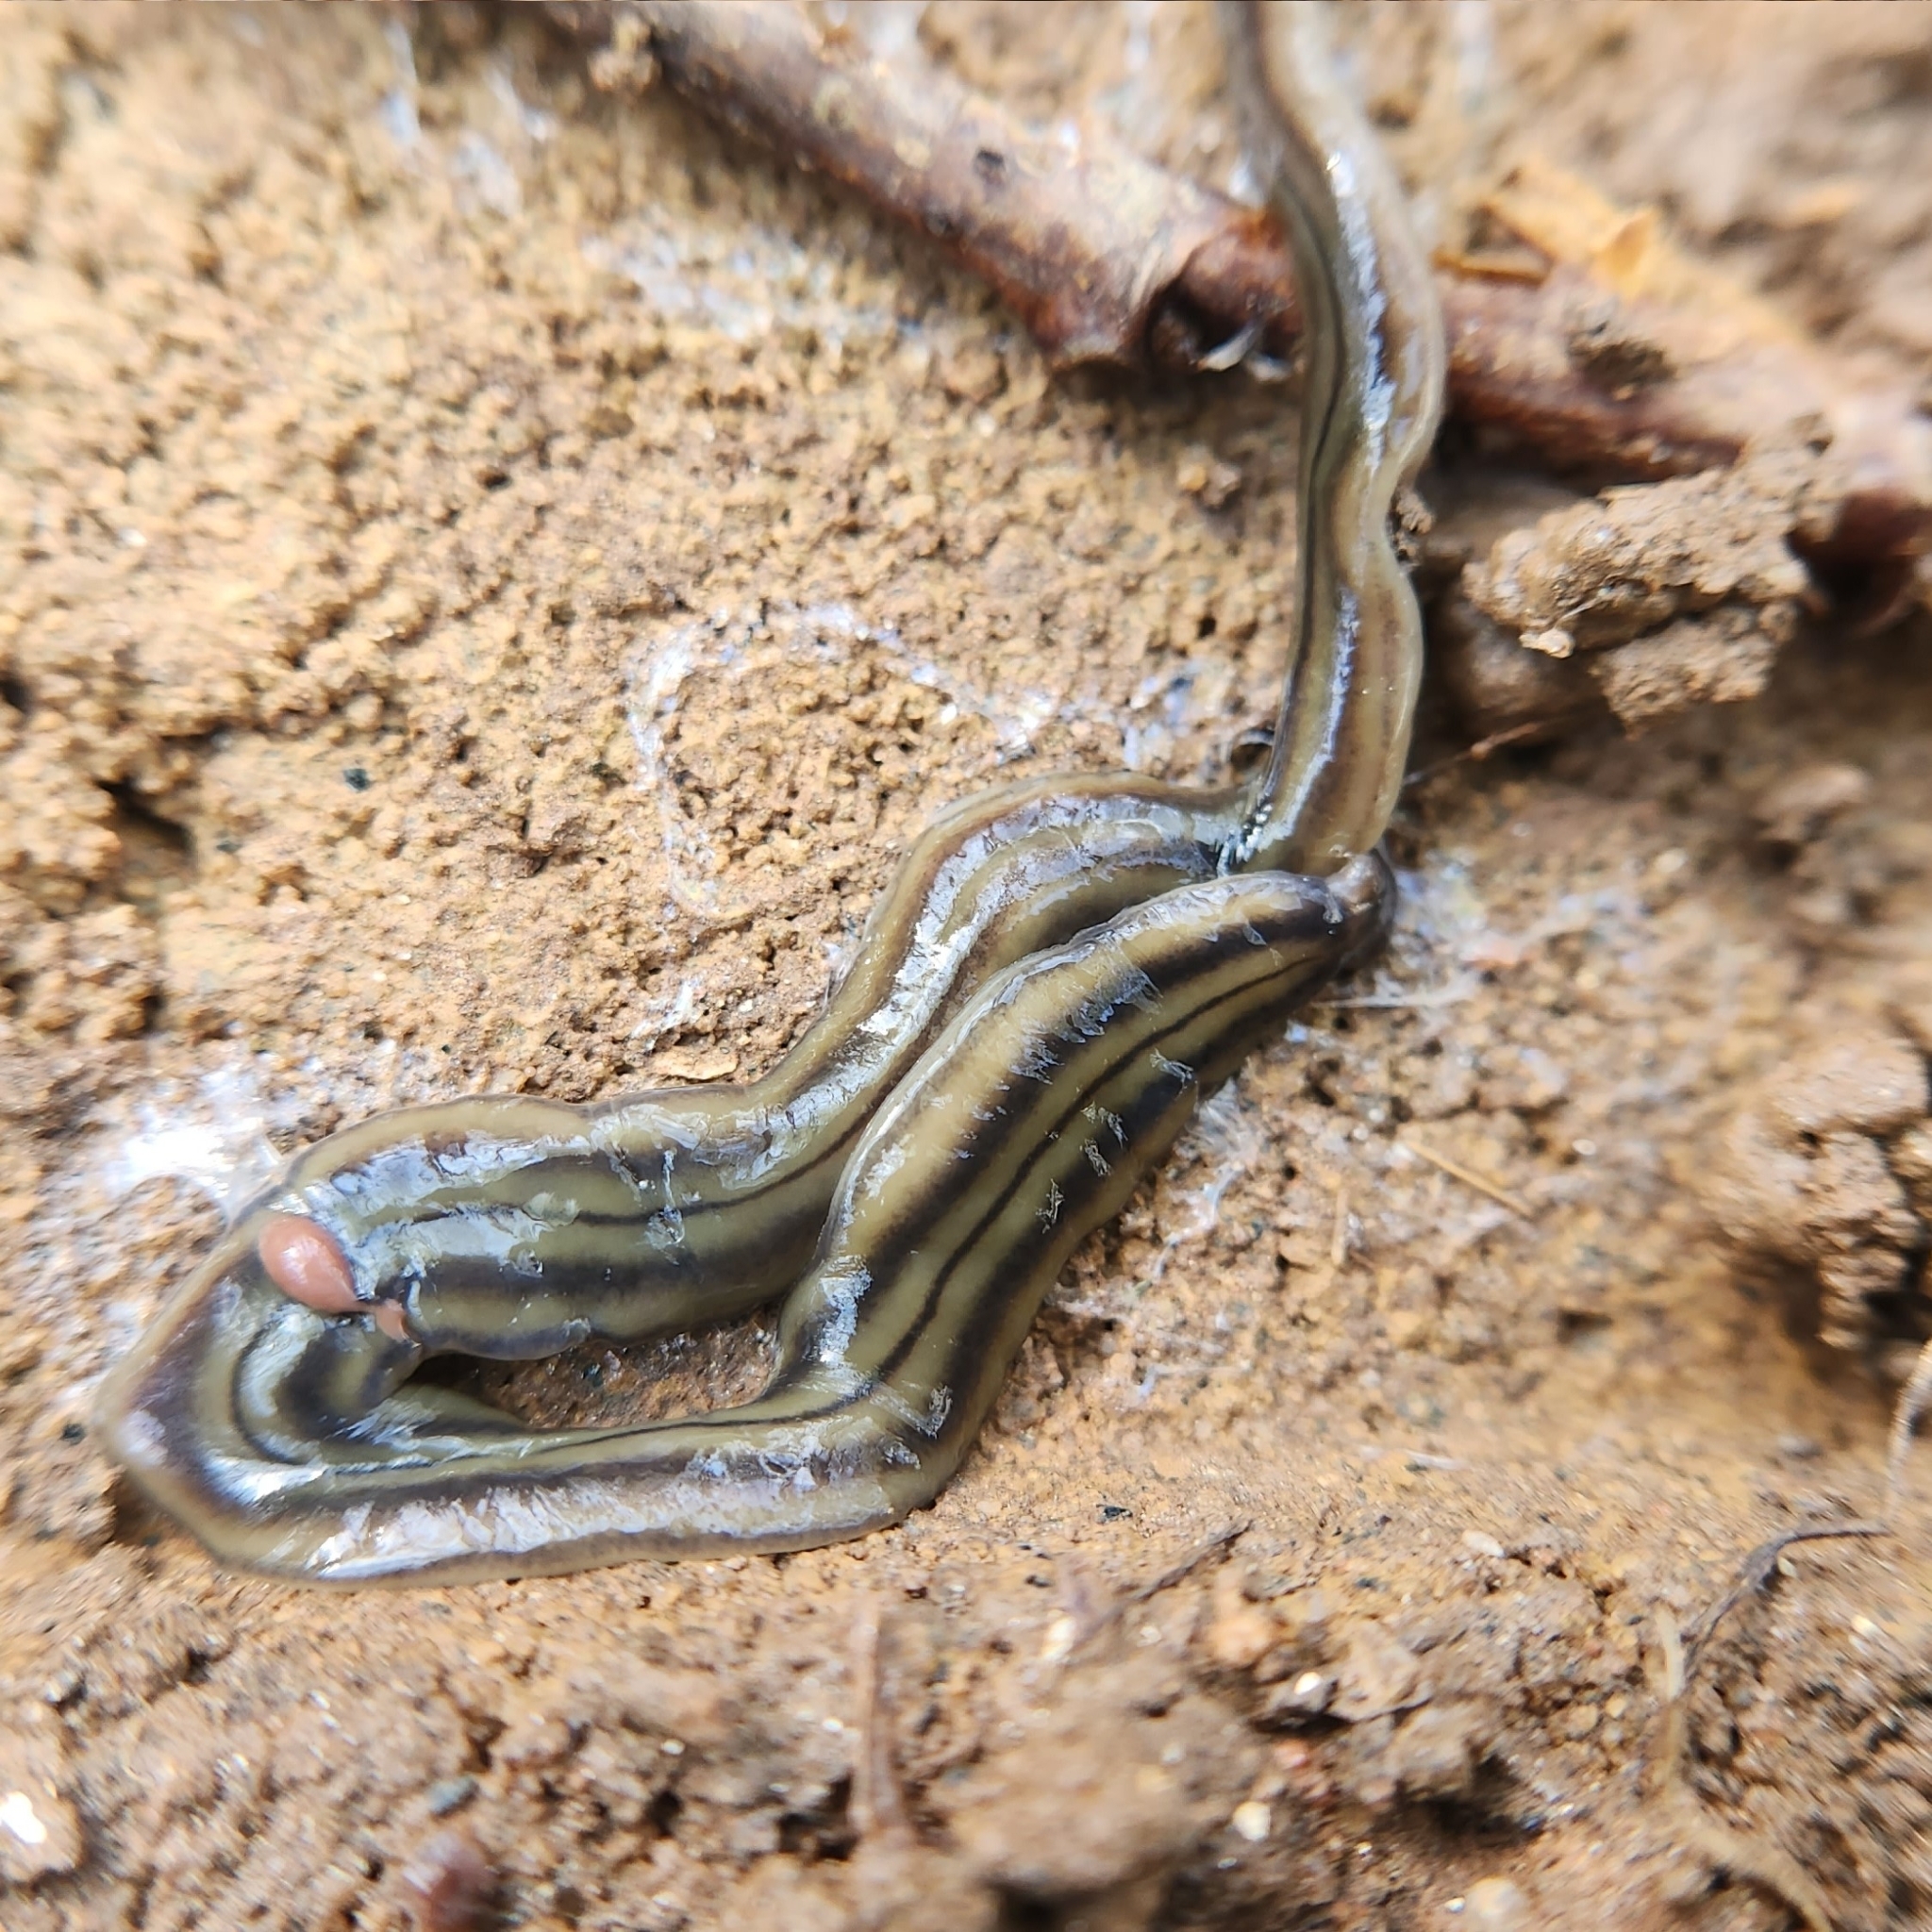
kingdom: Animalia
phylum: Platyhelminthes
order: Tricladida
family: Geoplanidae
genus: Bipalium
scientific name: Bipalium kewense
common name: Hammerhead flatworm
